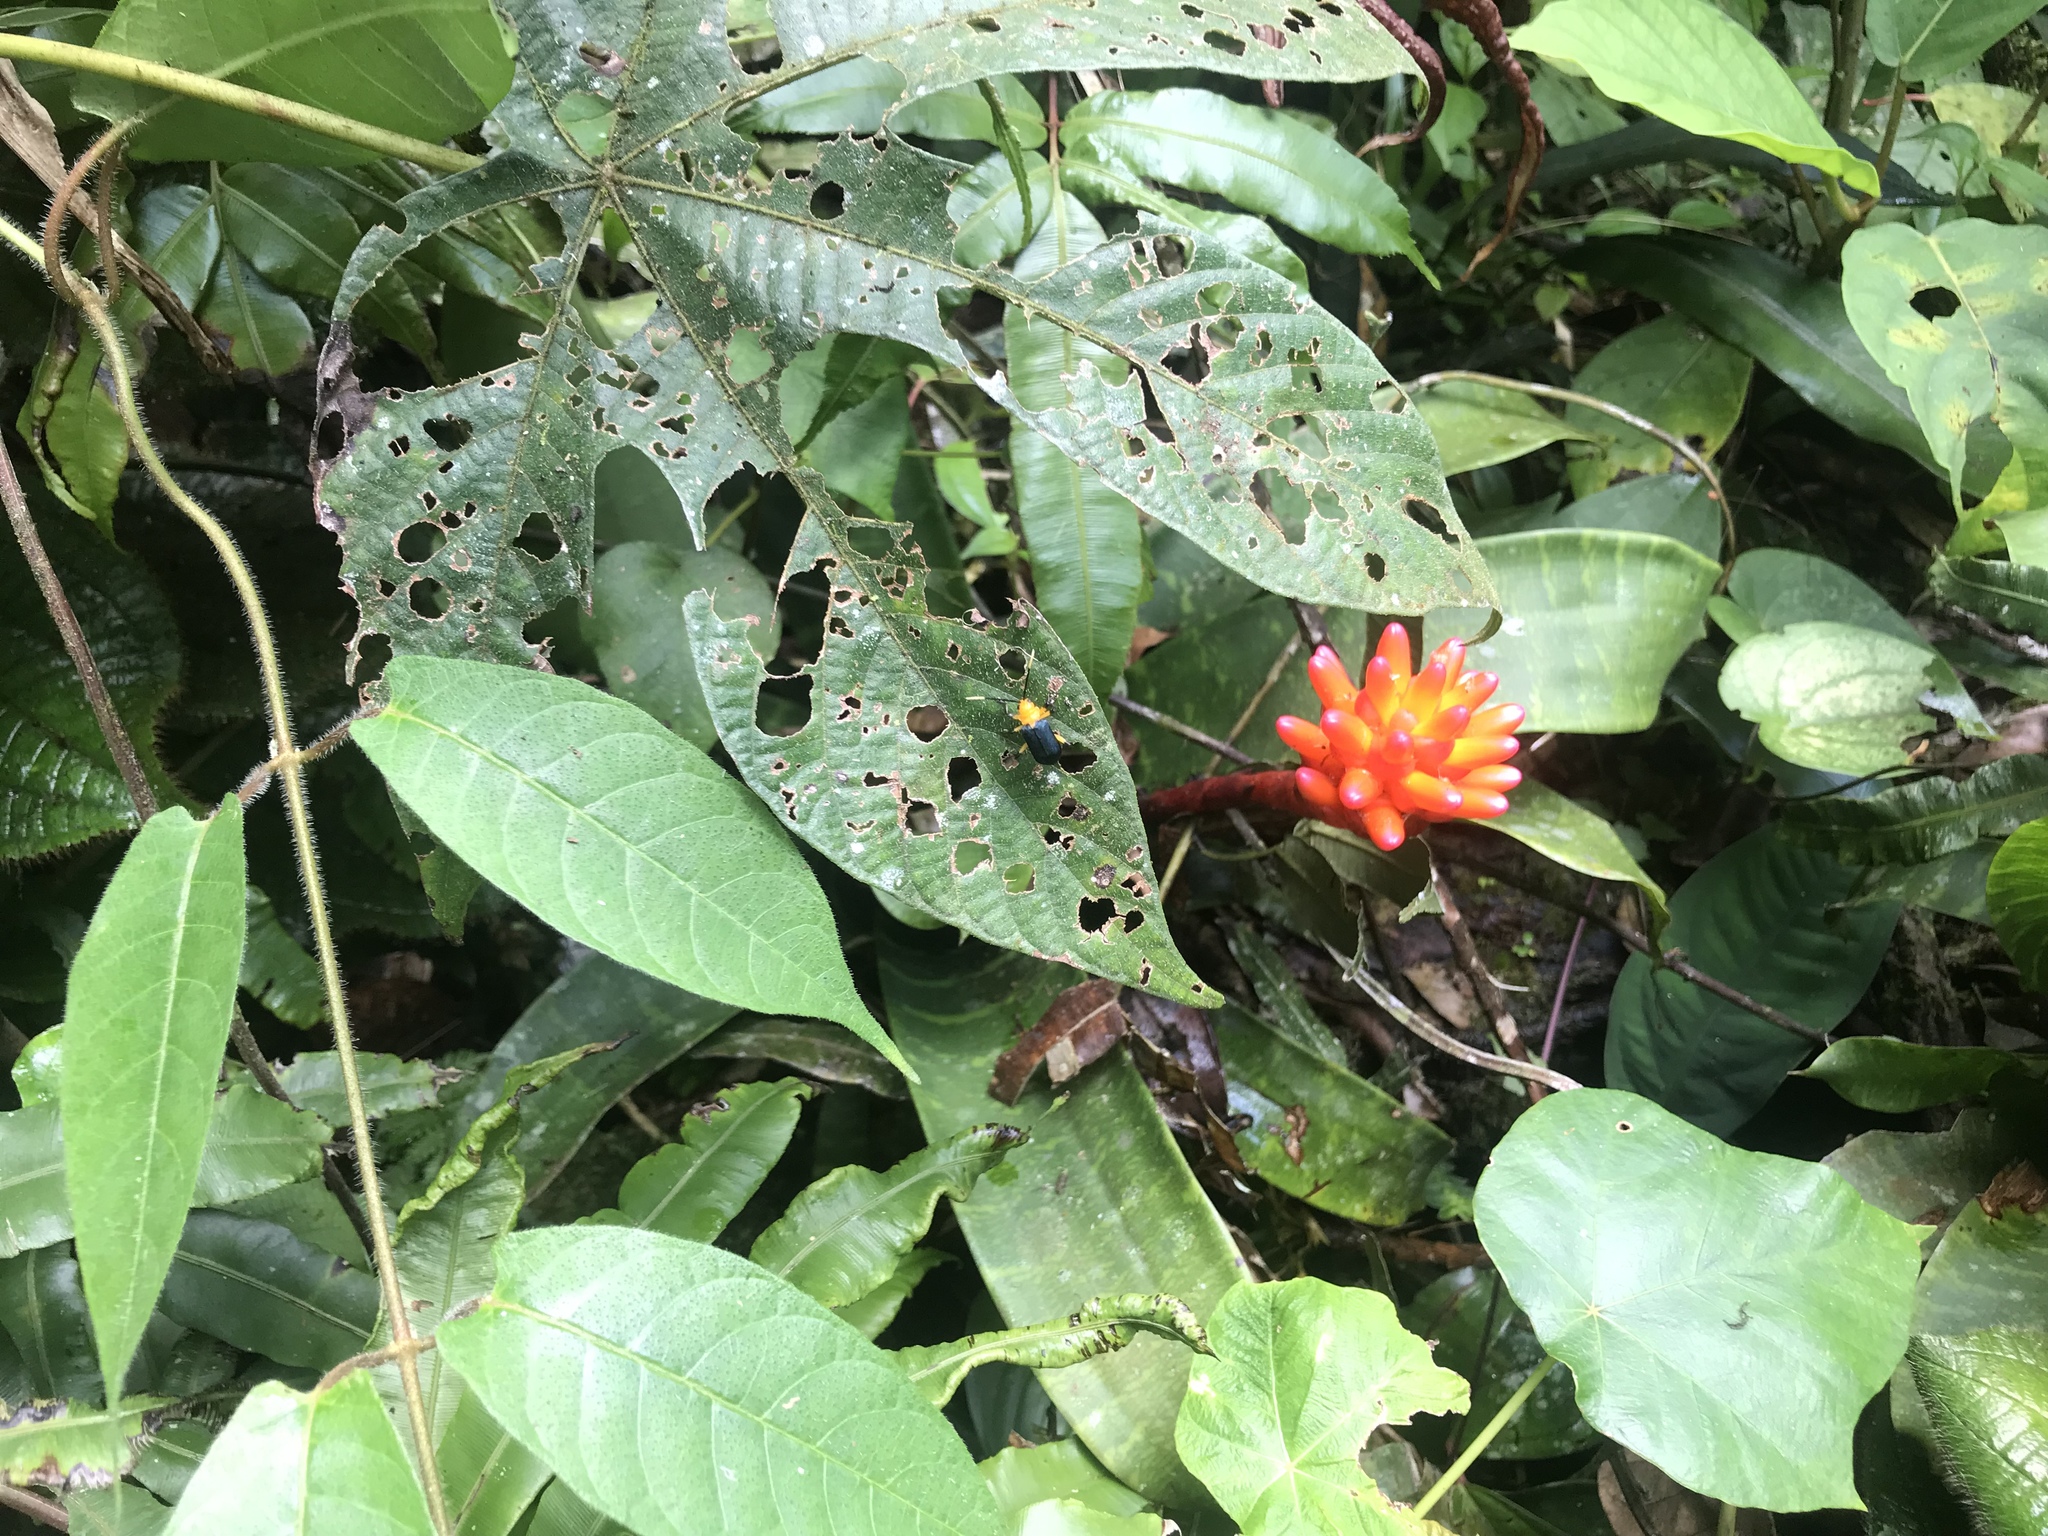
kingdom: Plantae
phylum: Tracheophyta
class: Liliopsida
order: Poales
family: Bromeliaceae
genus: Guzmania
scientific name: Guzmania musaica
